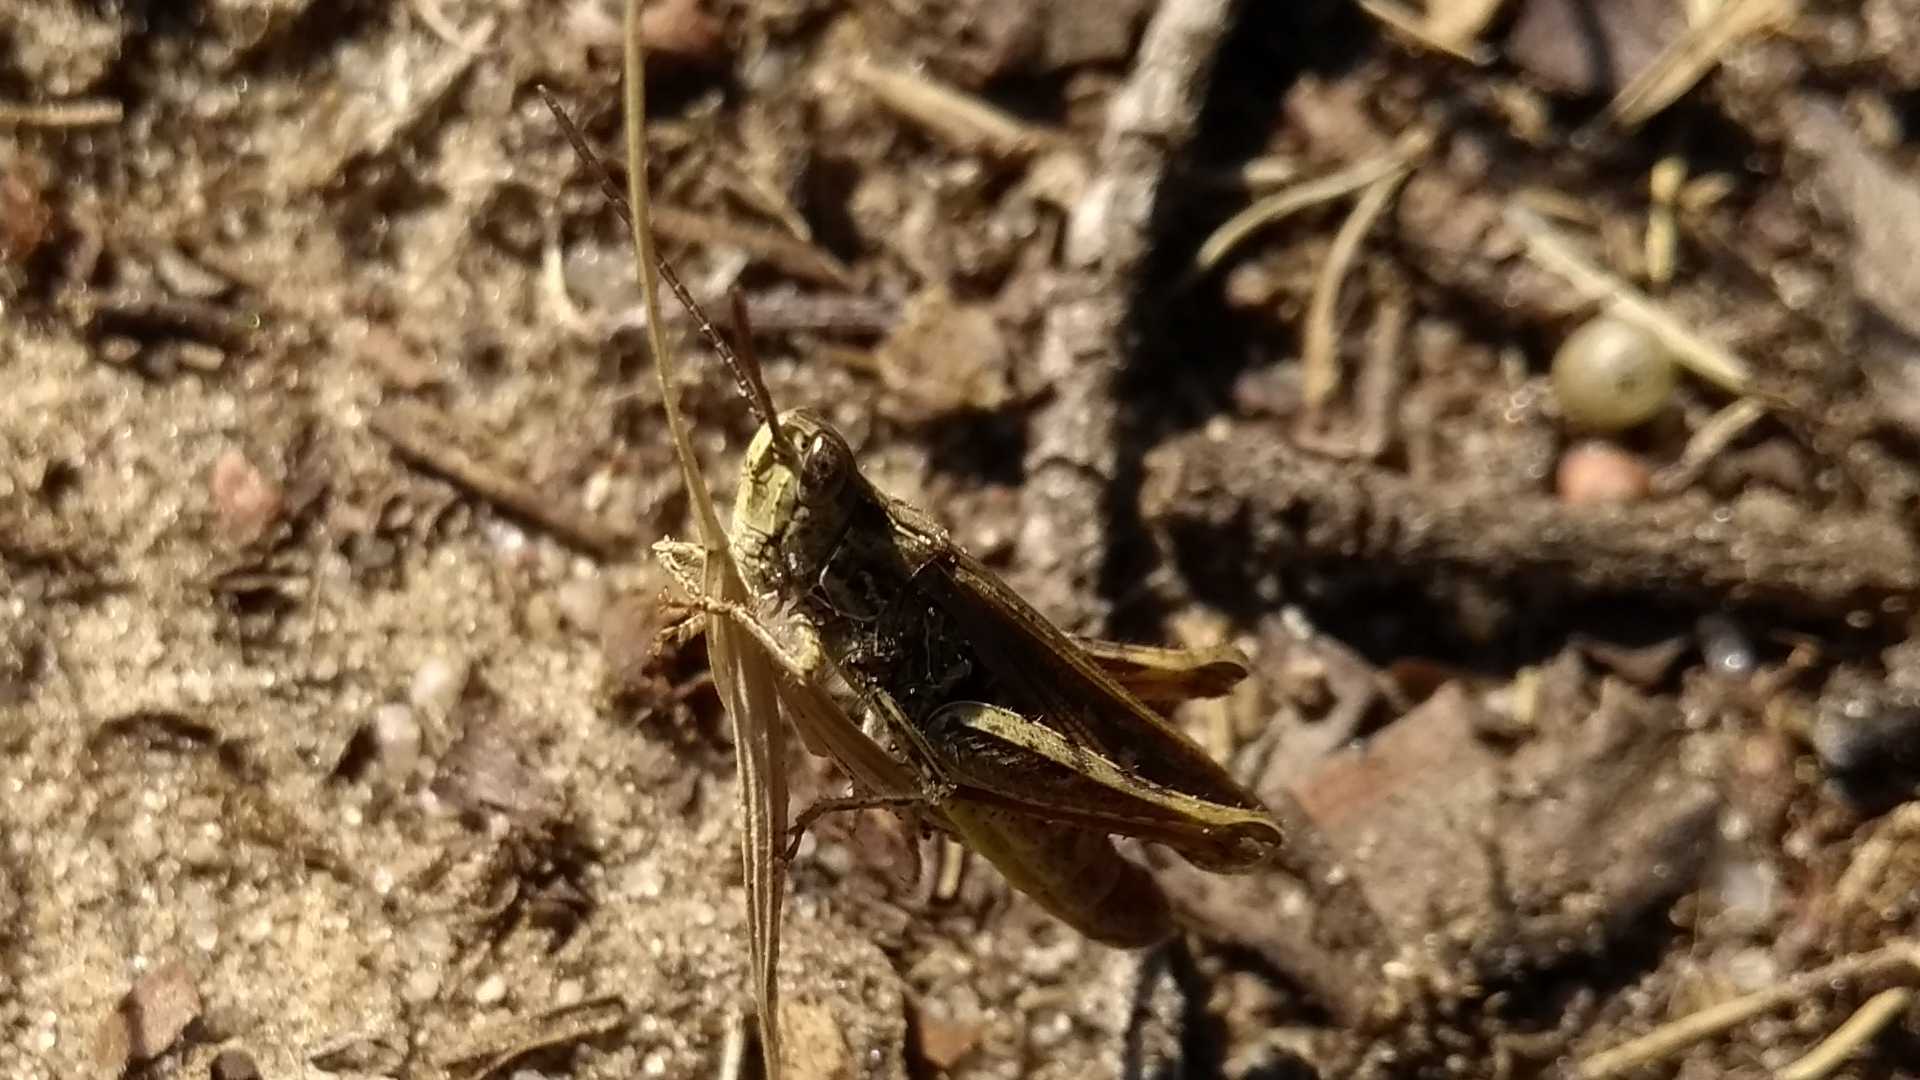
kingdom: Animalia
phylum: Arthropoda
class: Insecta
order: Orthoptera
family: Acrididae
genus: Glyptobothrus
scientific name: Glyptobothrus
